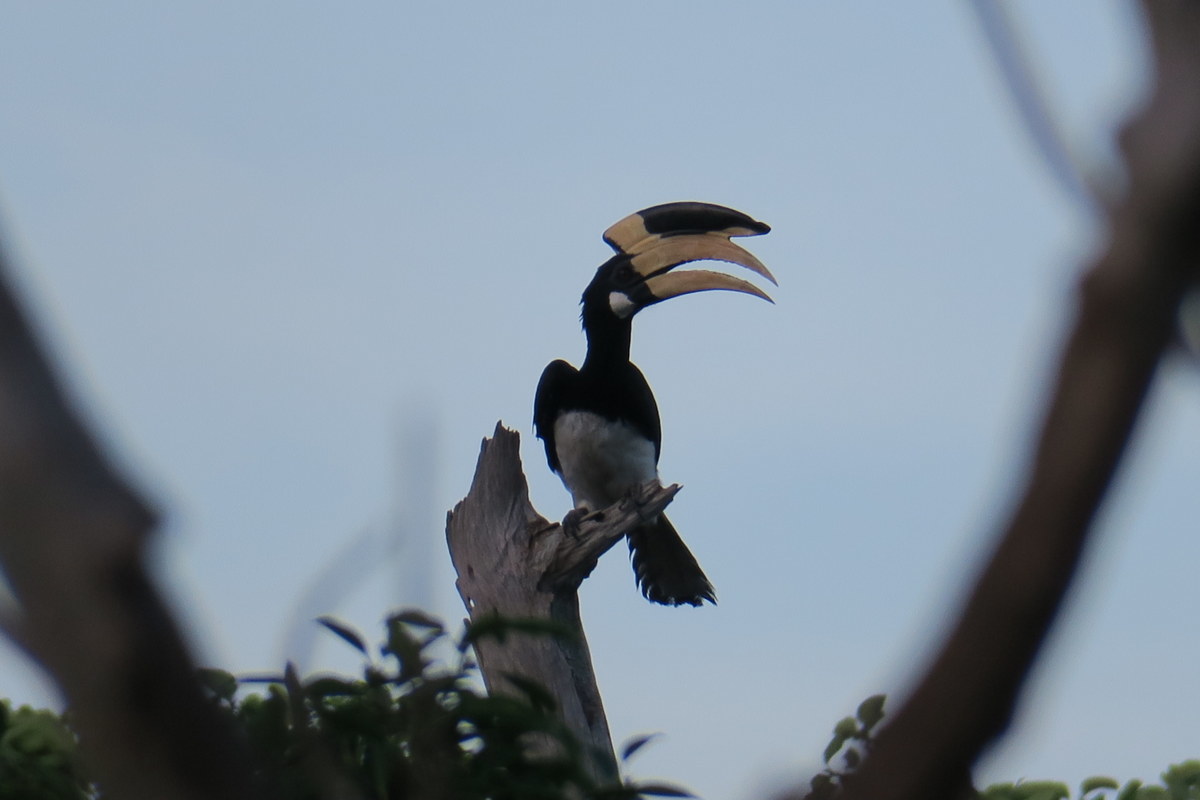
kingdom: Animalia
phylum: Chordata
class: Aves
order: Bucerotiformes
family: Bucerotidae
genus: Anthracoceros
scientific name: Anthracoceros coronatus
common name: Malabar pied hornbill
